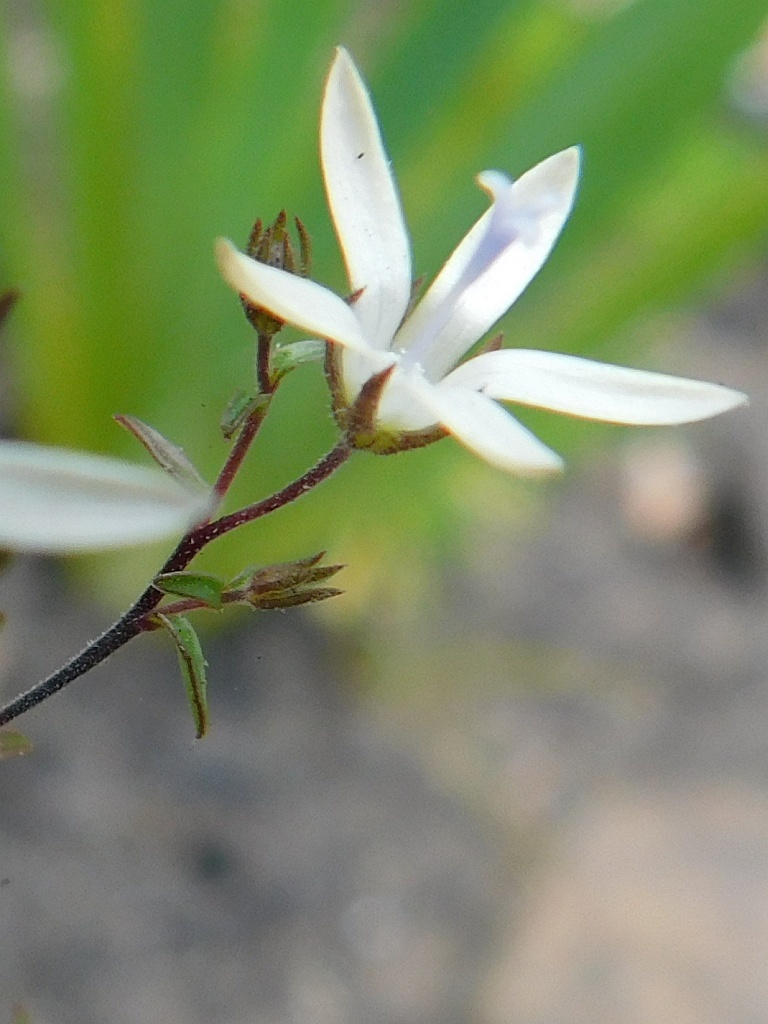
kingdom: Plantae
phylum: Tracheophyta
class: Magnoliopsida
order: Asterales
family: Campanulaceae
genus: Wahlenbergia
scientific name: Wahlenbergia parvifolia
